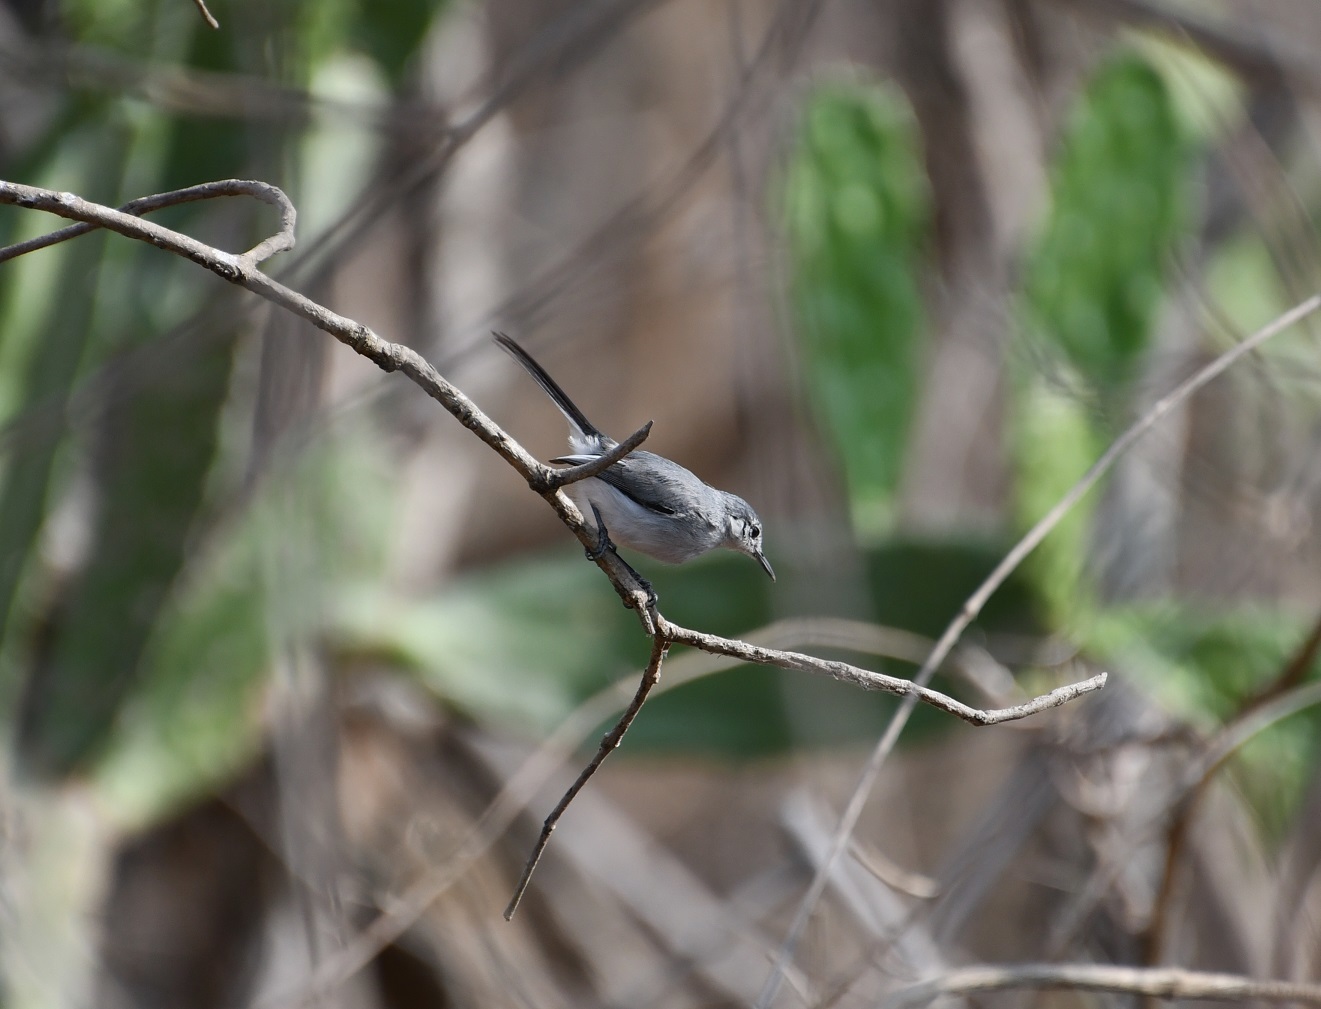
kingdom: Animalia
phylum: Chordata
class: Aves
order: Passeriformes
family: Polioptilidae
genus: Polioptila
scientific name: Polioptila albiloris
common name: White-lored gnatcatcher
